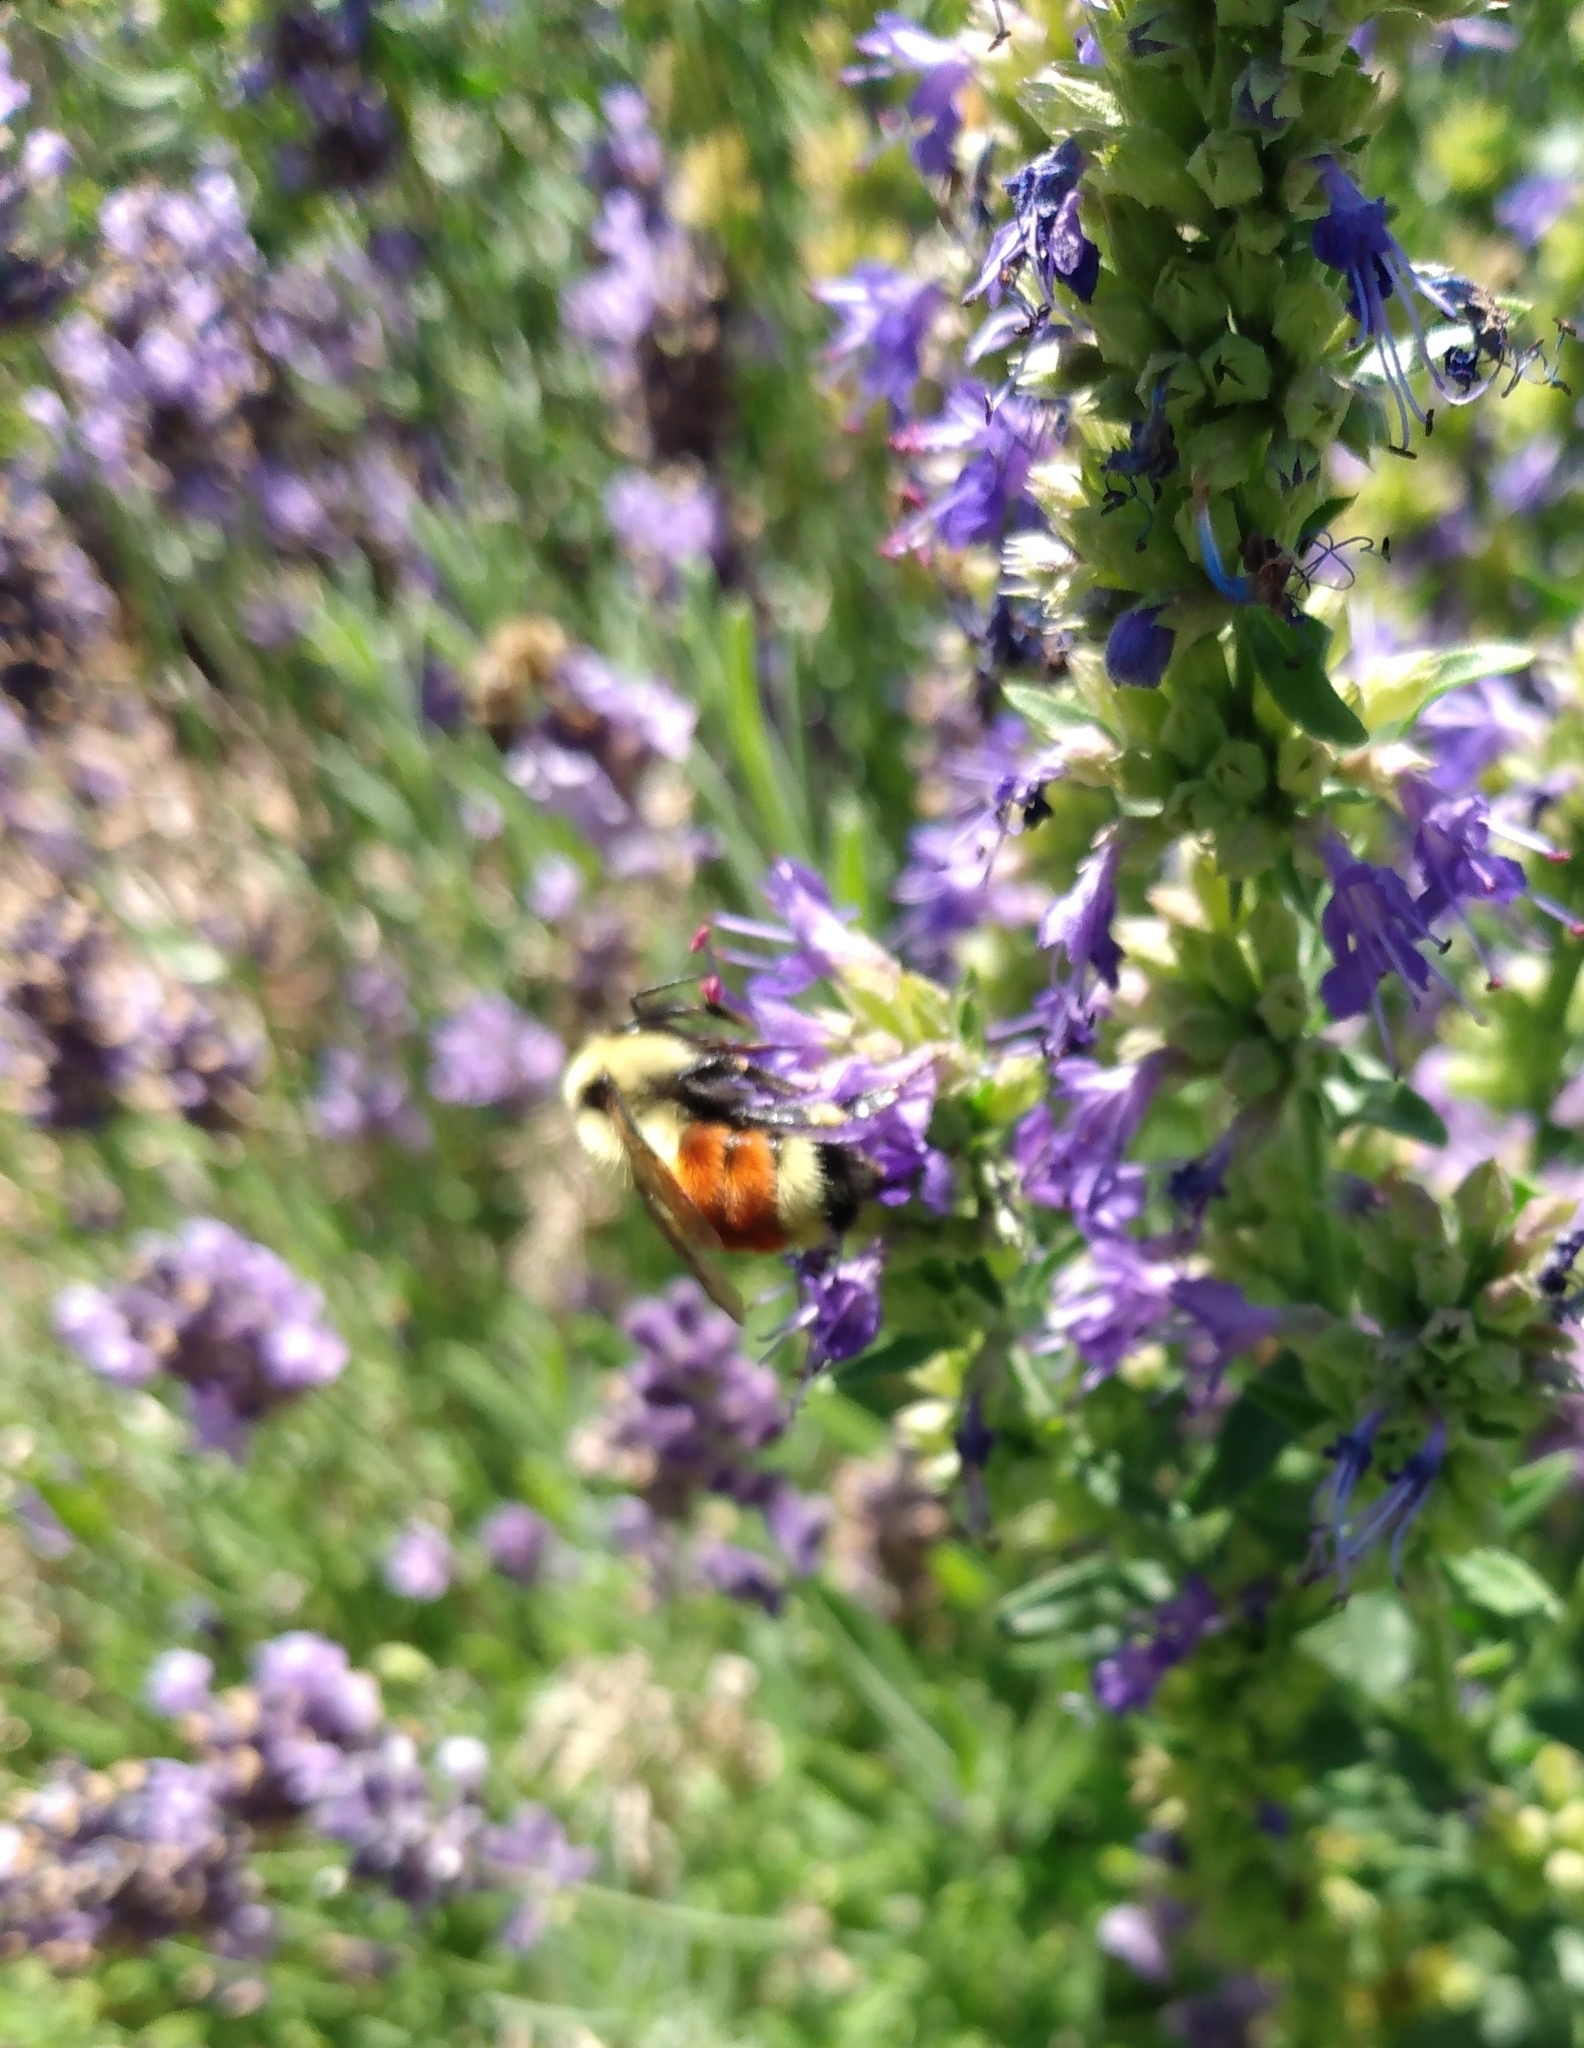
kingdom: Animalia
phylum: Arthropoda
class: Insecta
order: Hymenoptera
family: Apidae
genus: Bombus
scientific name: Bombus huntii
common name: Hunt bumble bee
